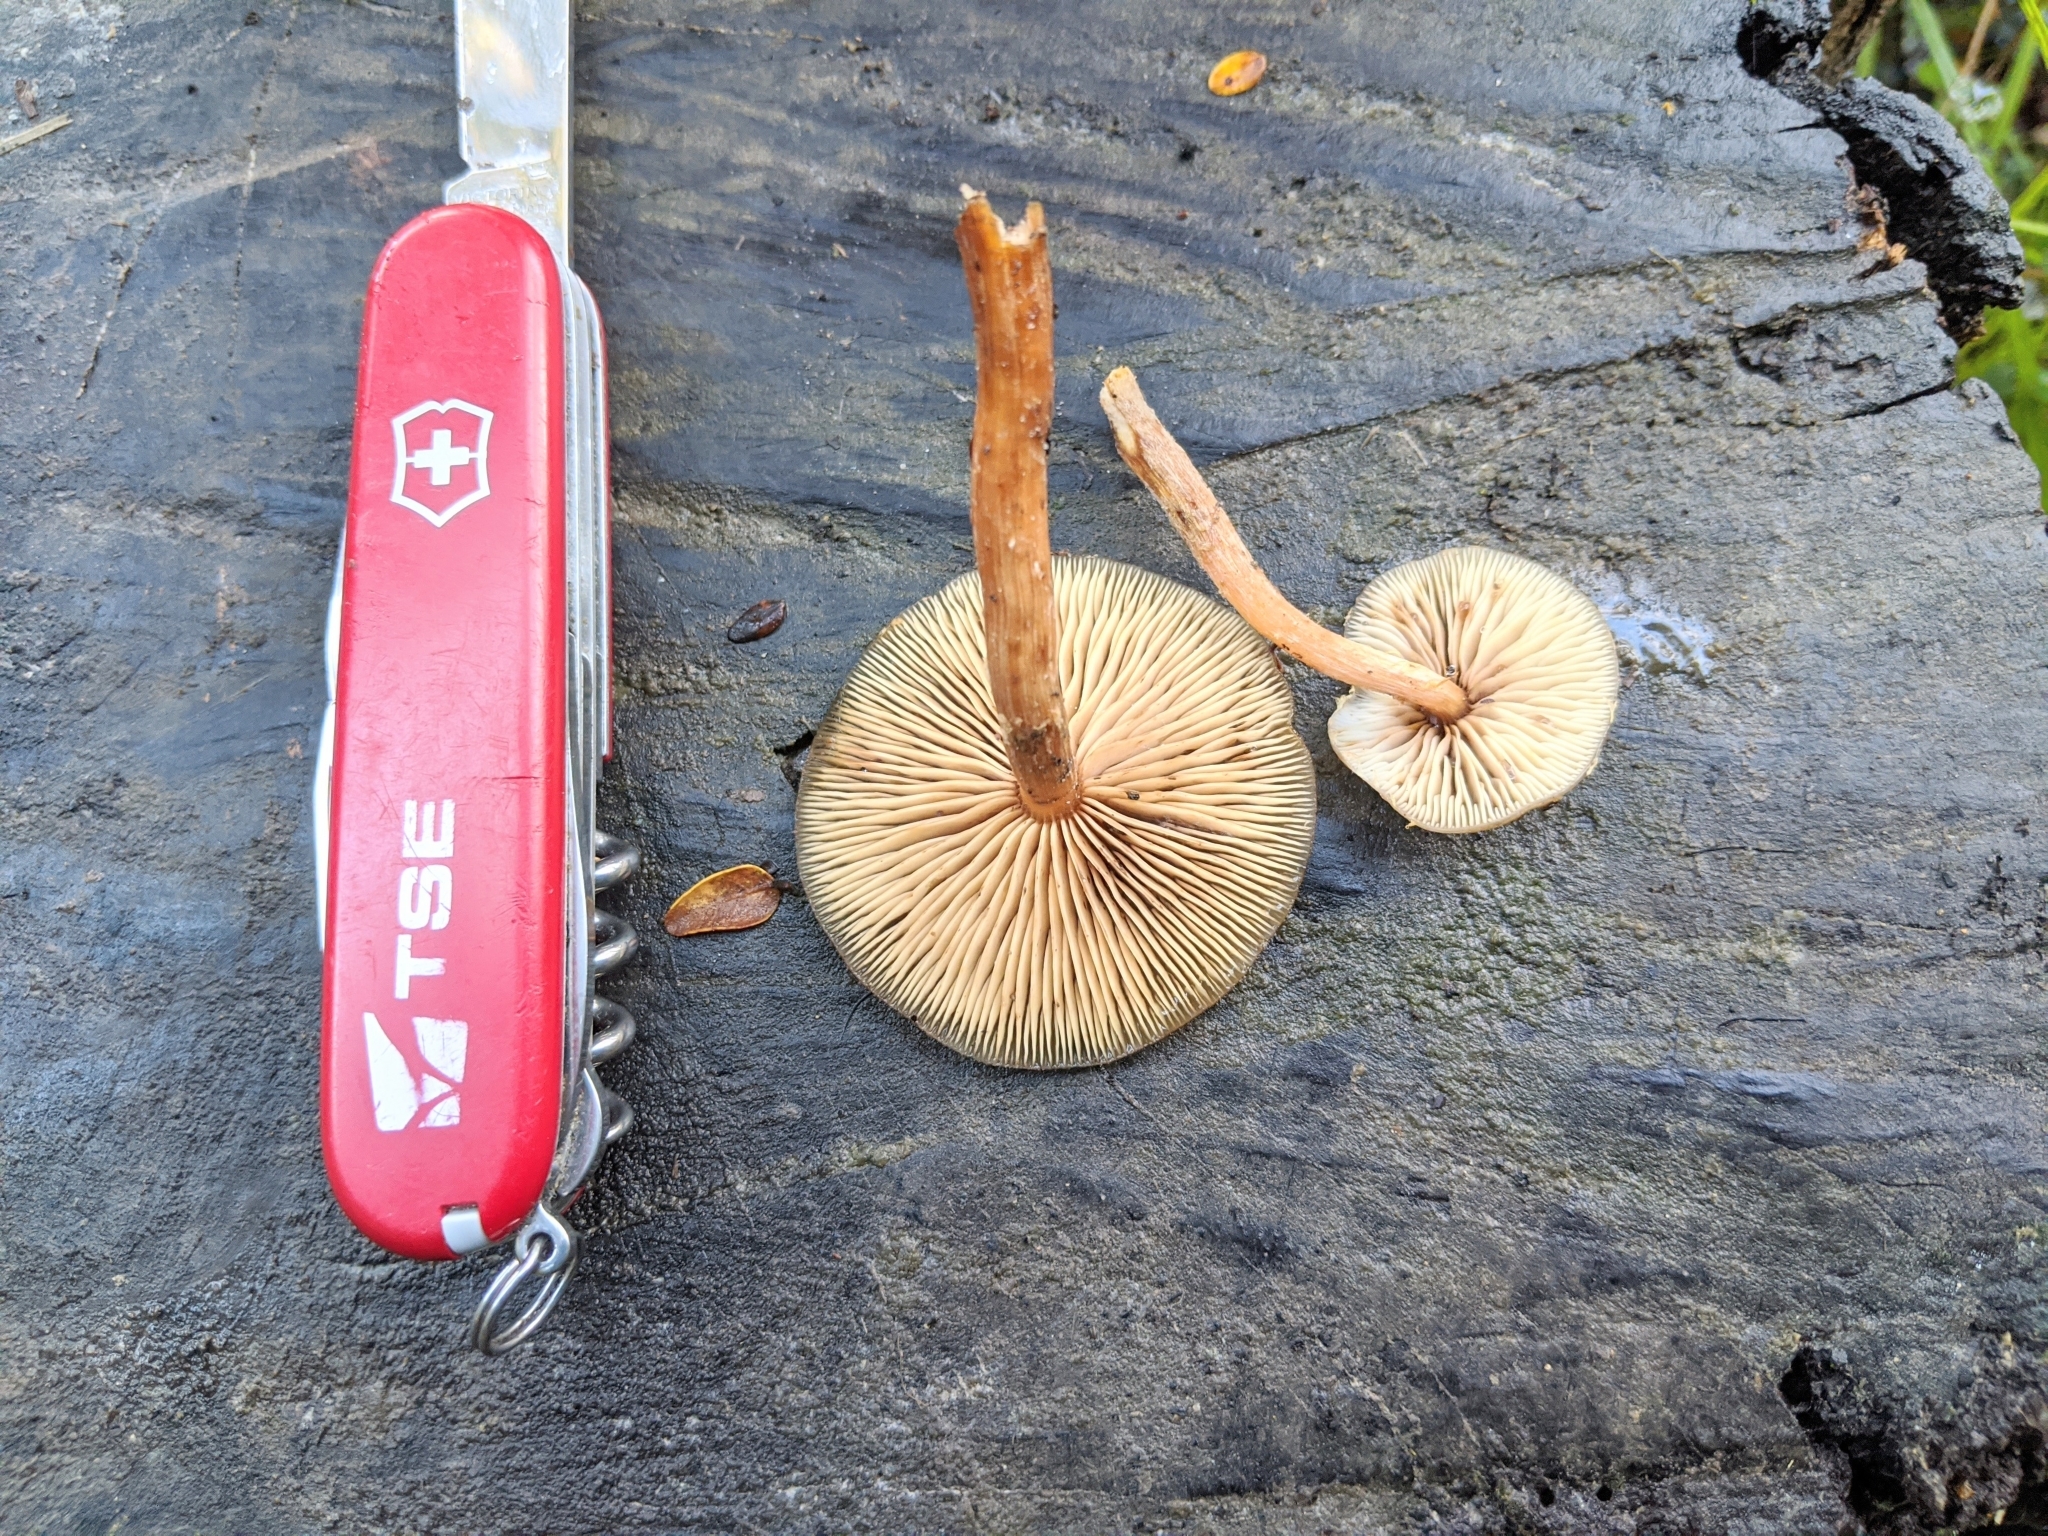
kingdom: Fungi
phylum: Basidiomycota
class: Agaricomycetes
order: Agaricales
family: Physalacriaceae
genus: Armillaria
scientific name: Armillaria novae-zelandiae
